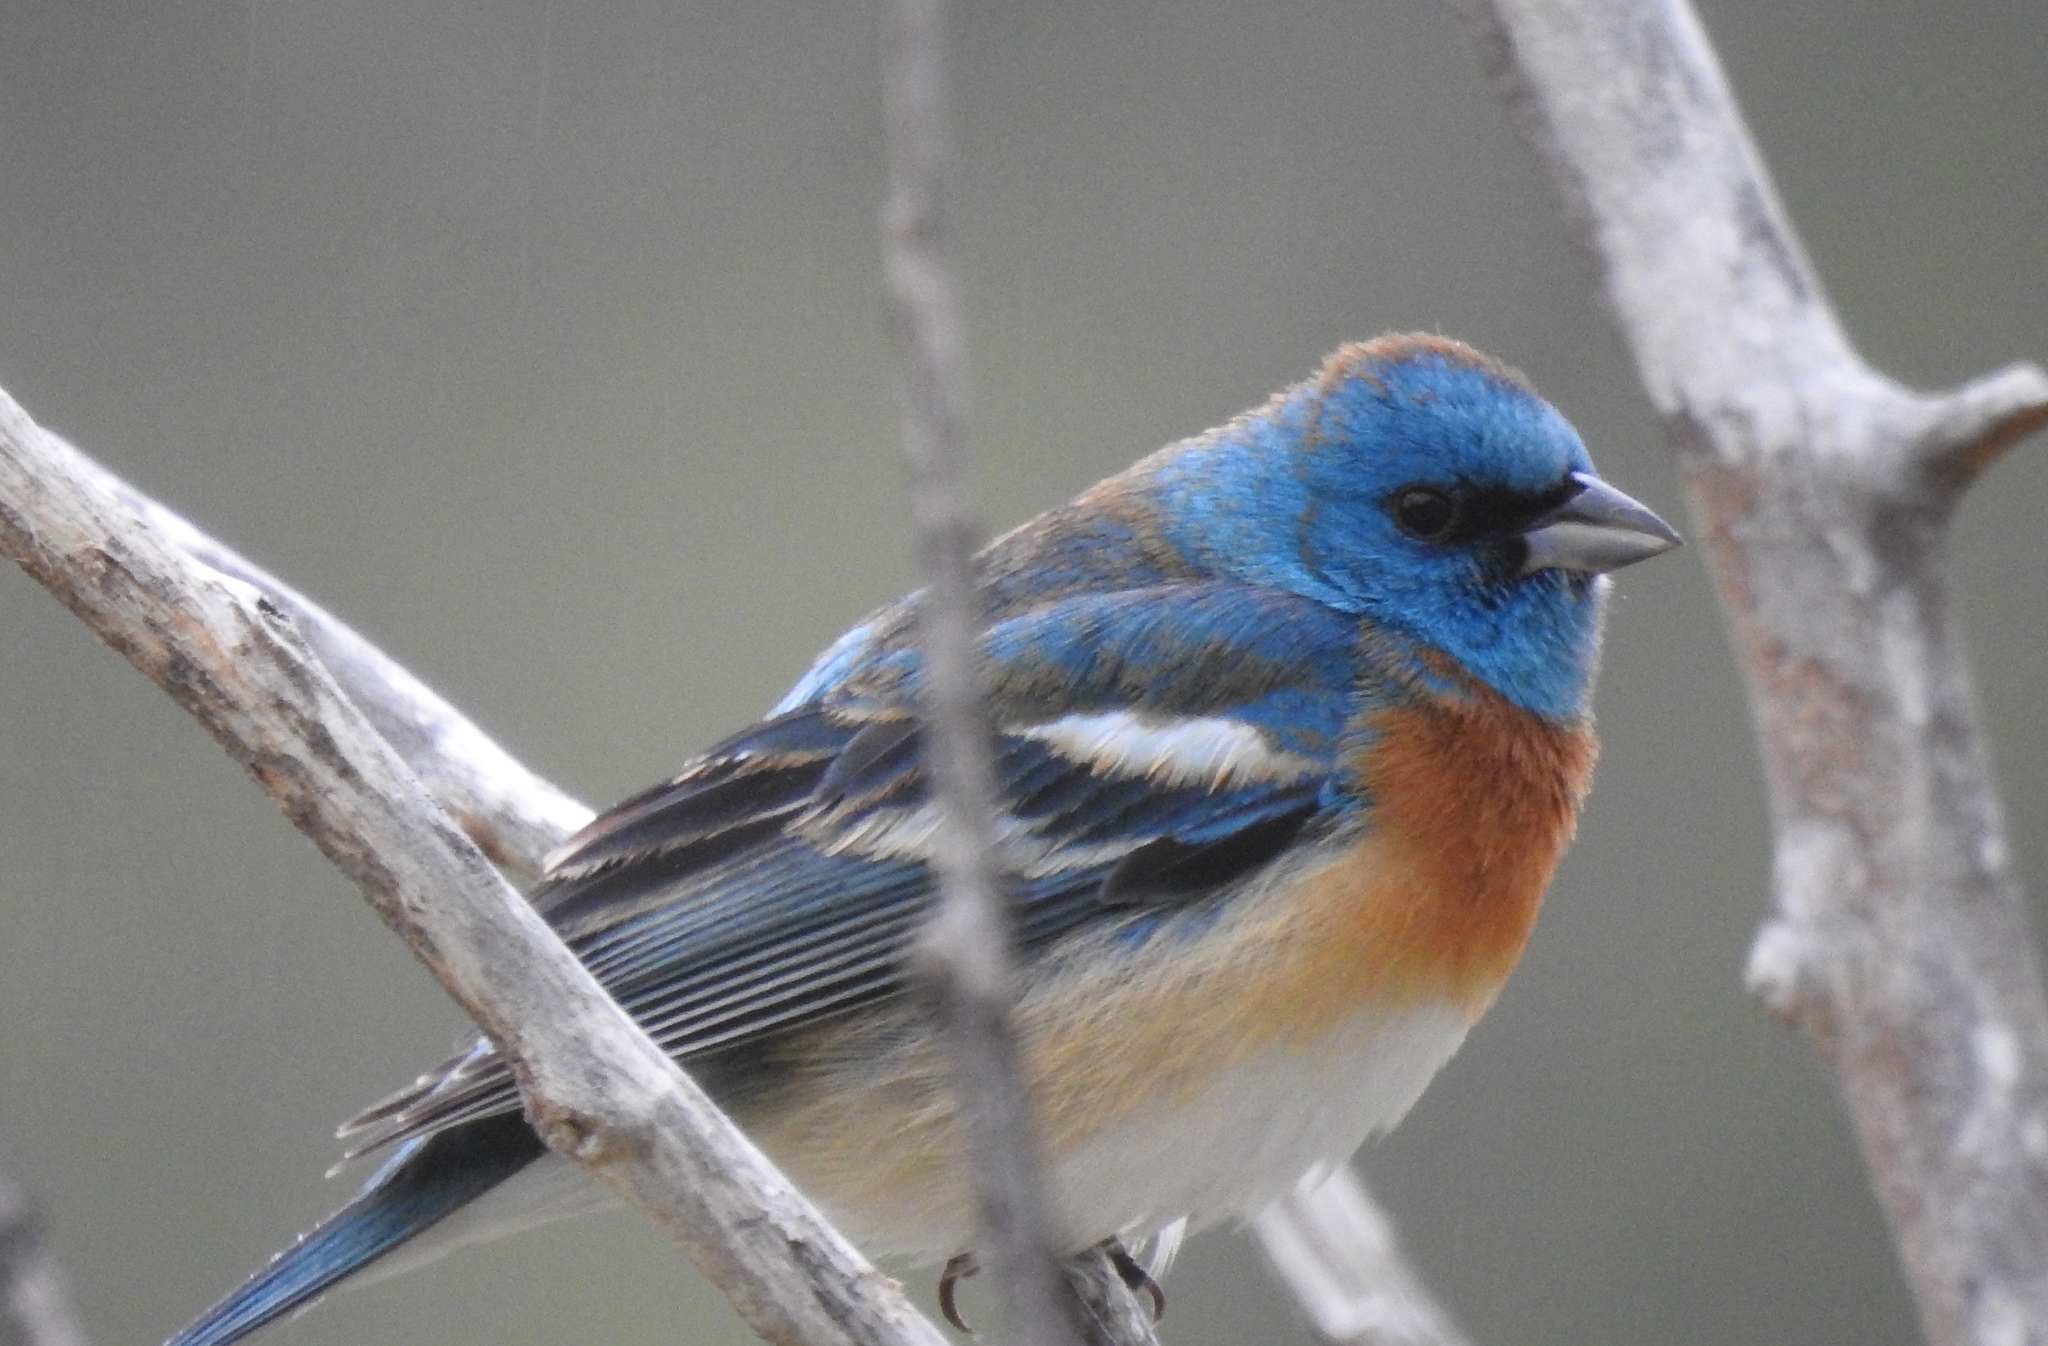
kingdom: Animalia
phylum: Chordata
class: Aves
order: Passeriformes
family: Cardinalidae
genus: Passerina
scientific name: Passerina amoena
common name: Lazuli bunting
